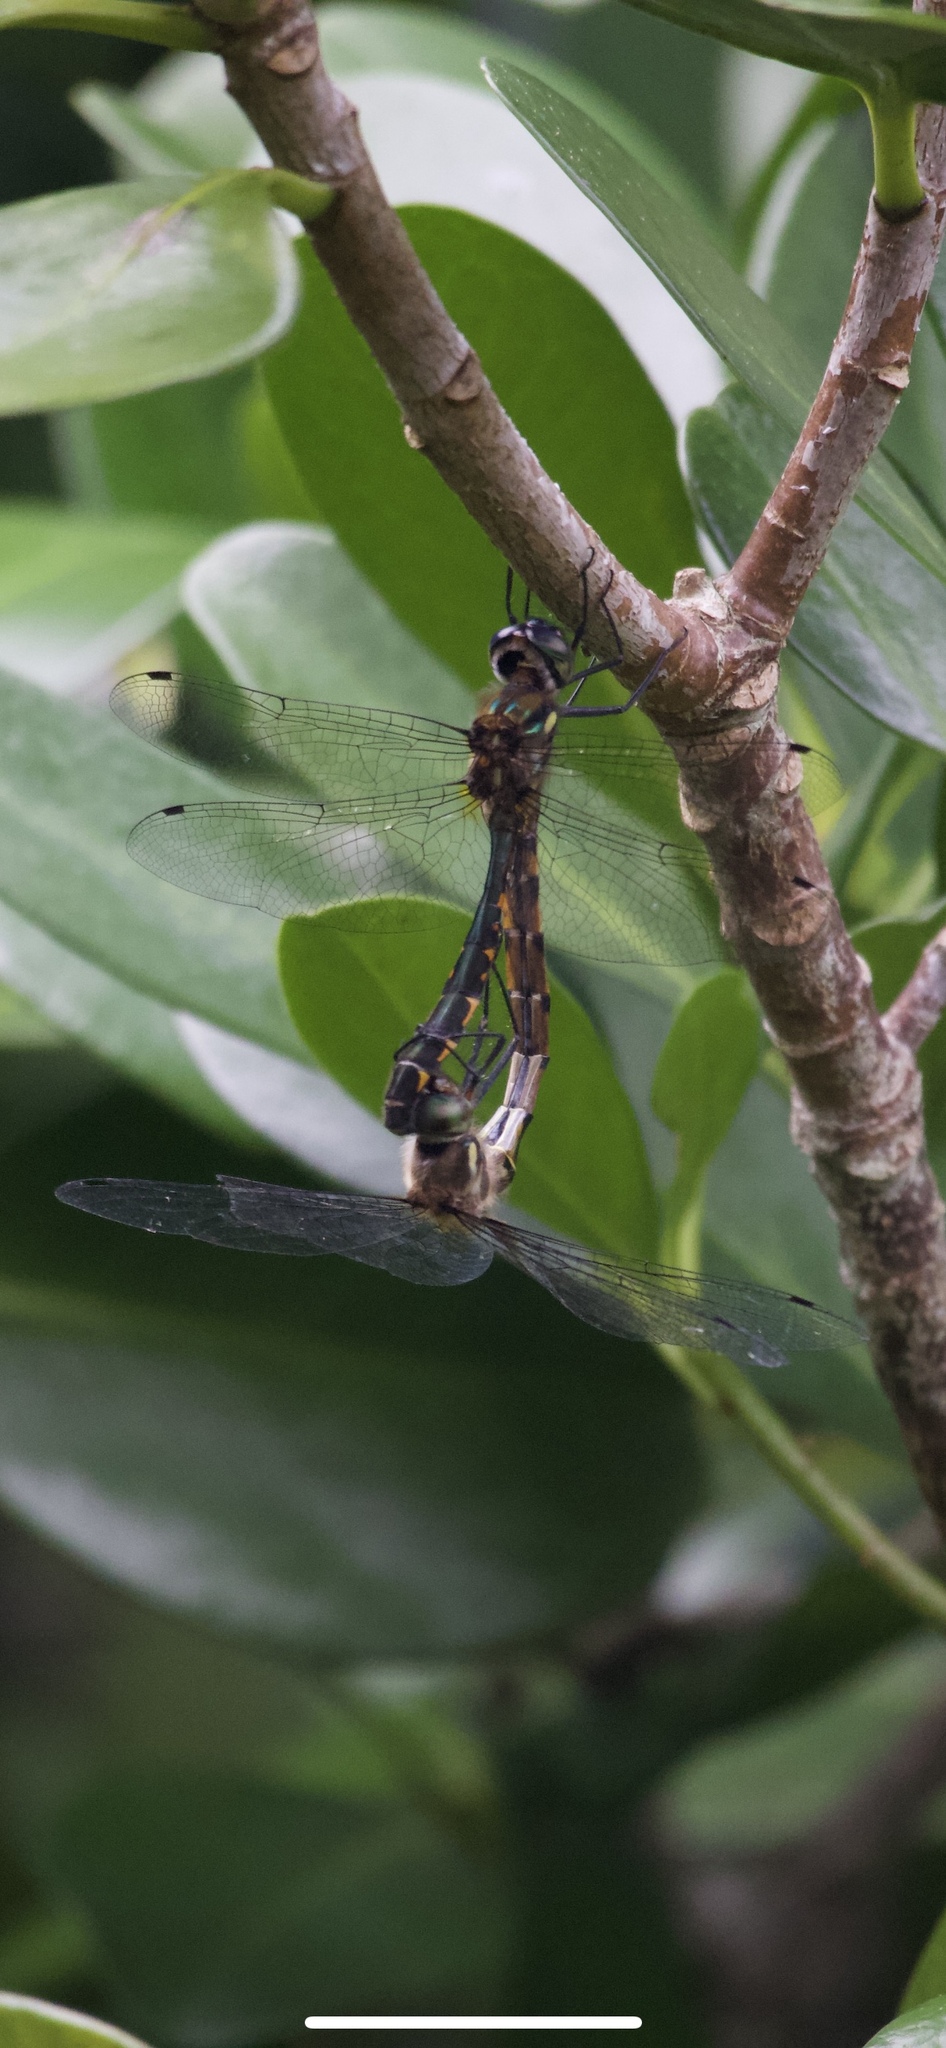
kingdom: Animalia
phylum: Arthropoda
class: Insecta
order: Odonata
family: Corduliidae
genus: Hemicordulia
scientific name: Hemicordulia armstrongi
